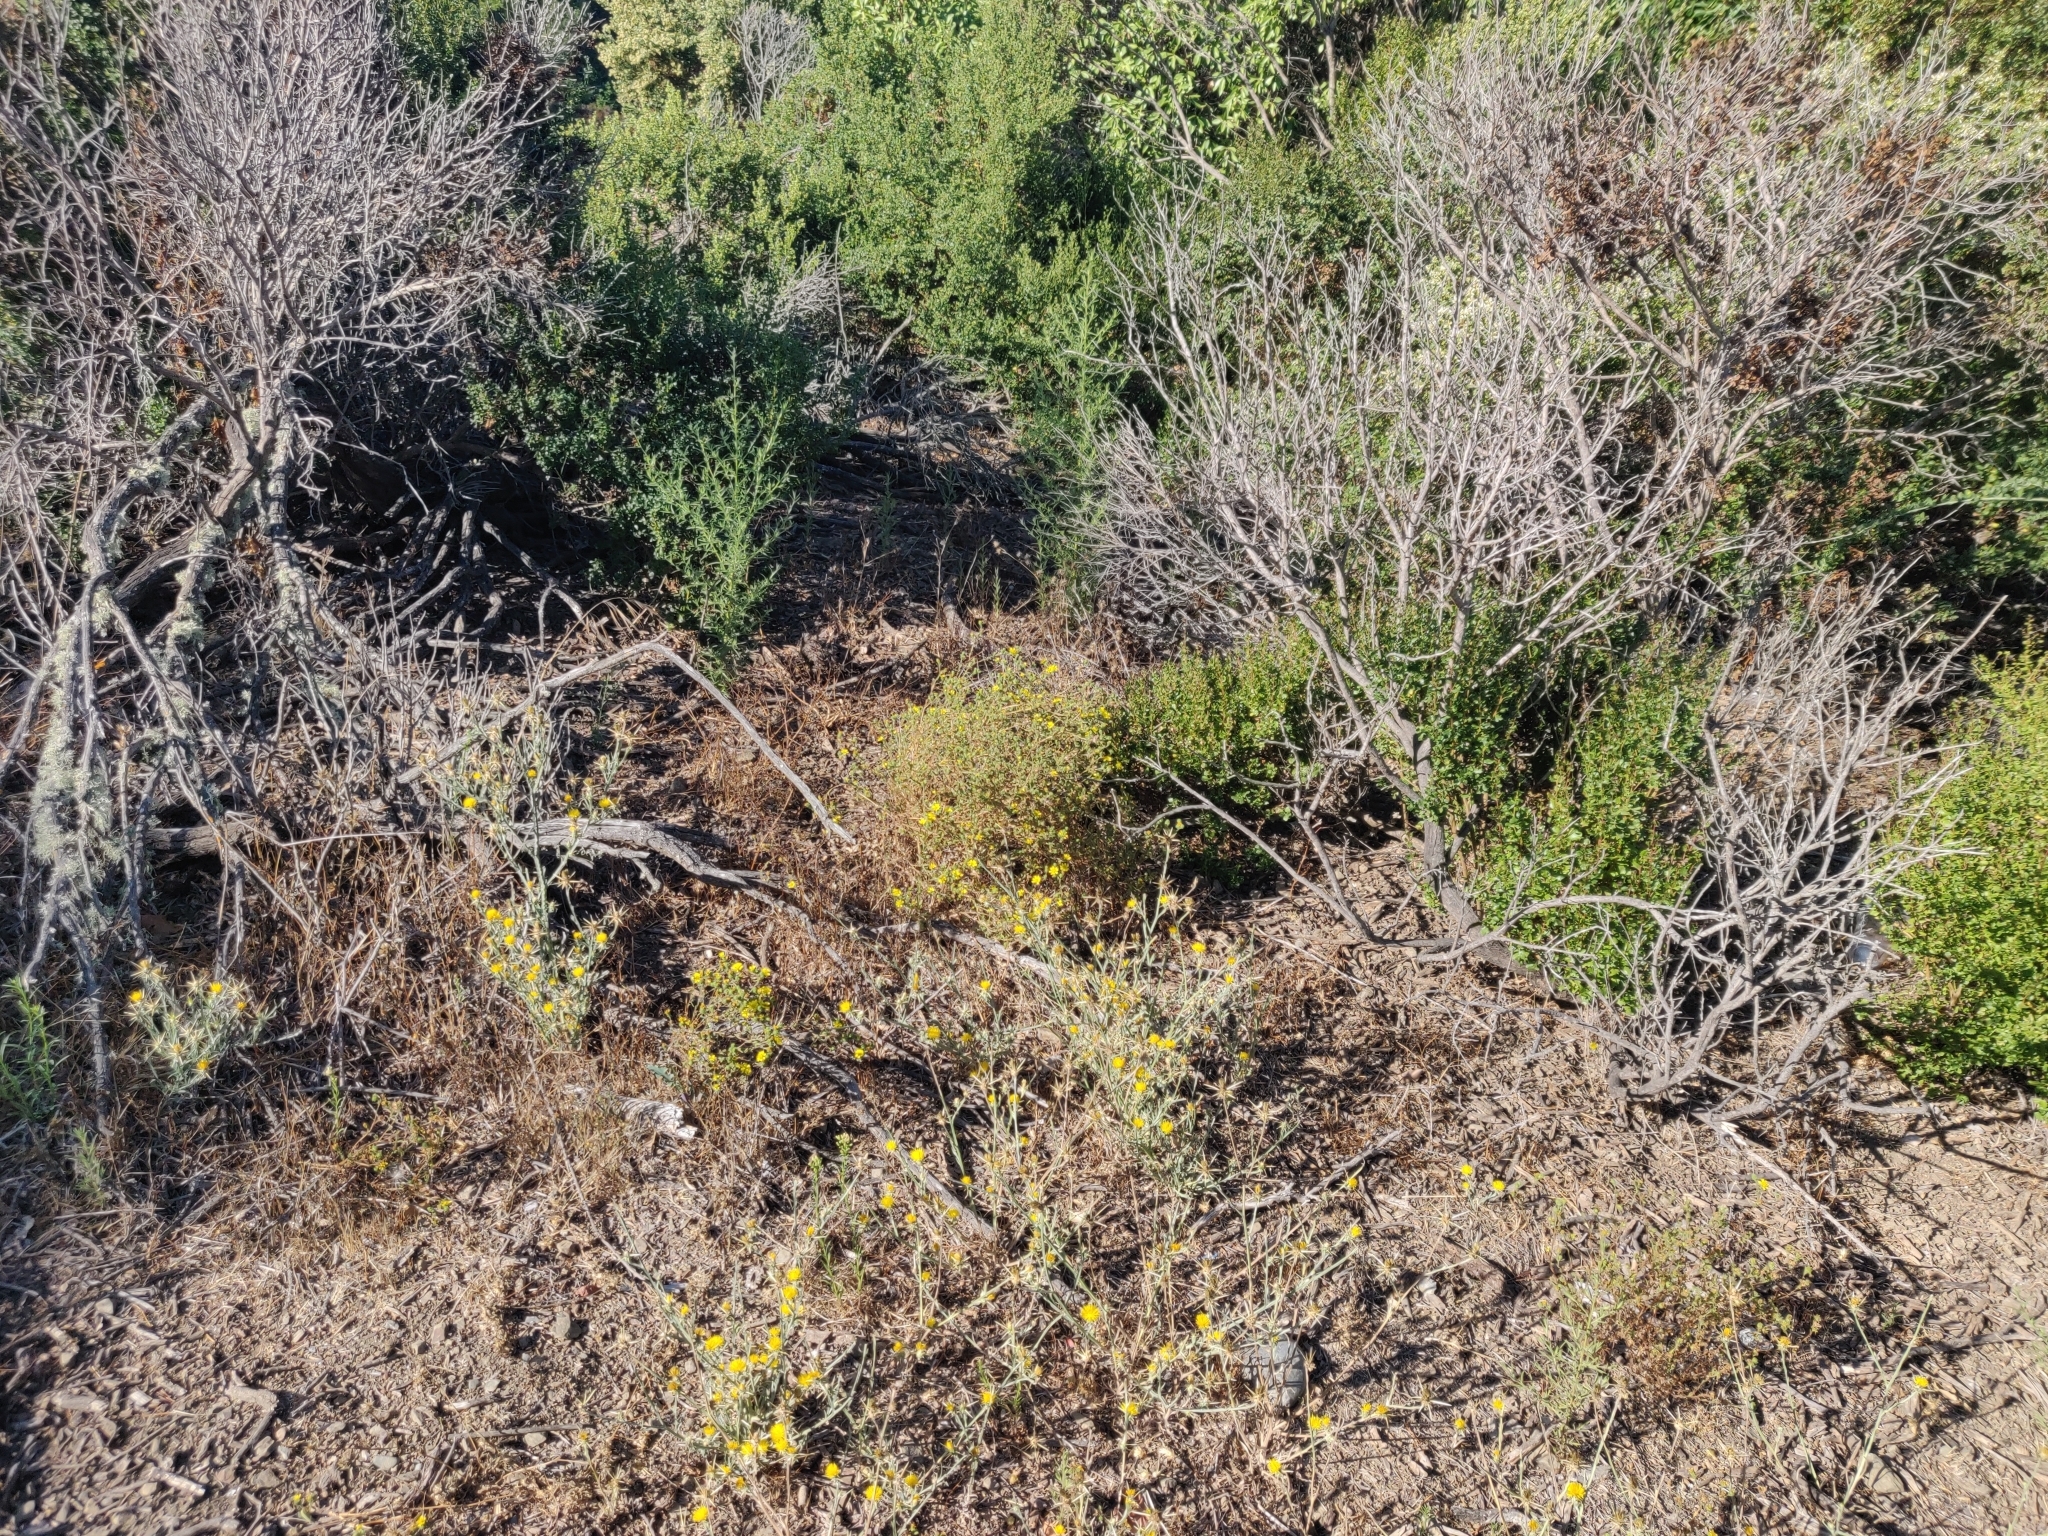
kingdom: Plantae
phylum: Tracheophyta
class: Magnoliopsida
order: Asterales
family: Asteraceae
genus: Deinandra
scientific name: Deinandra corymbosa
